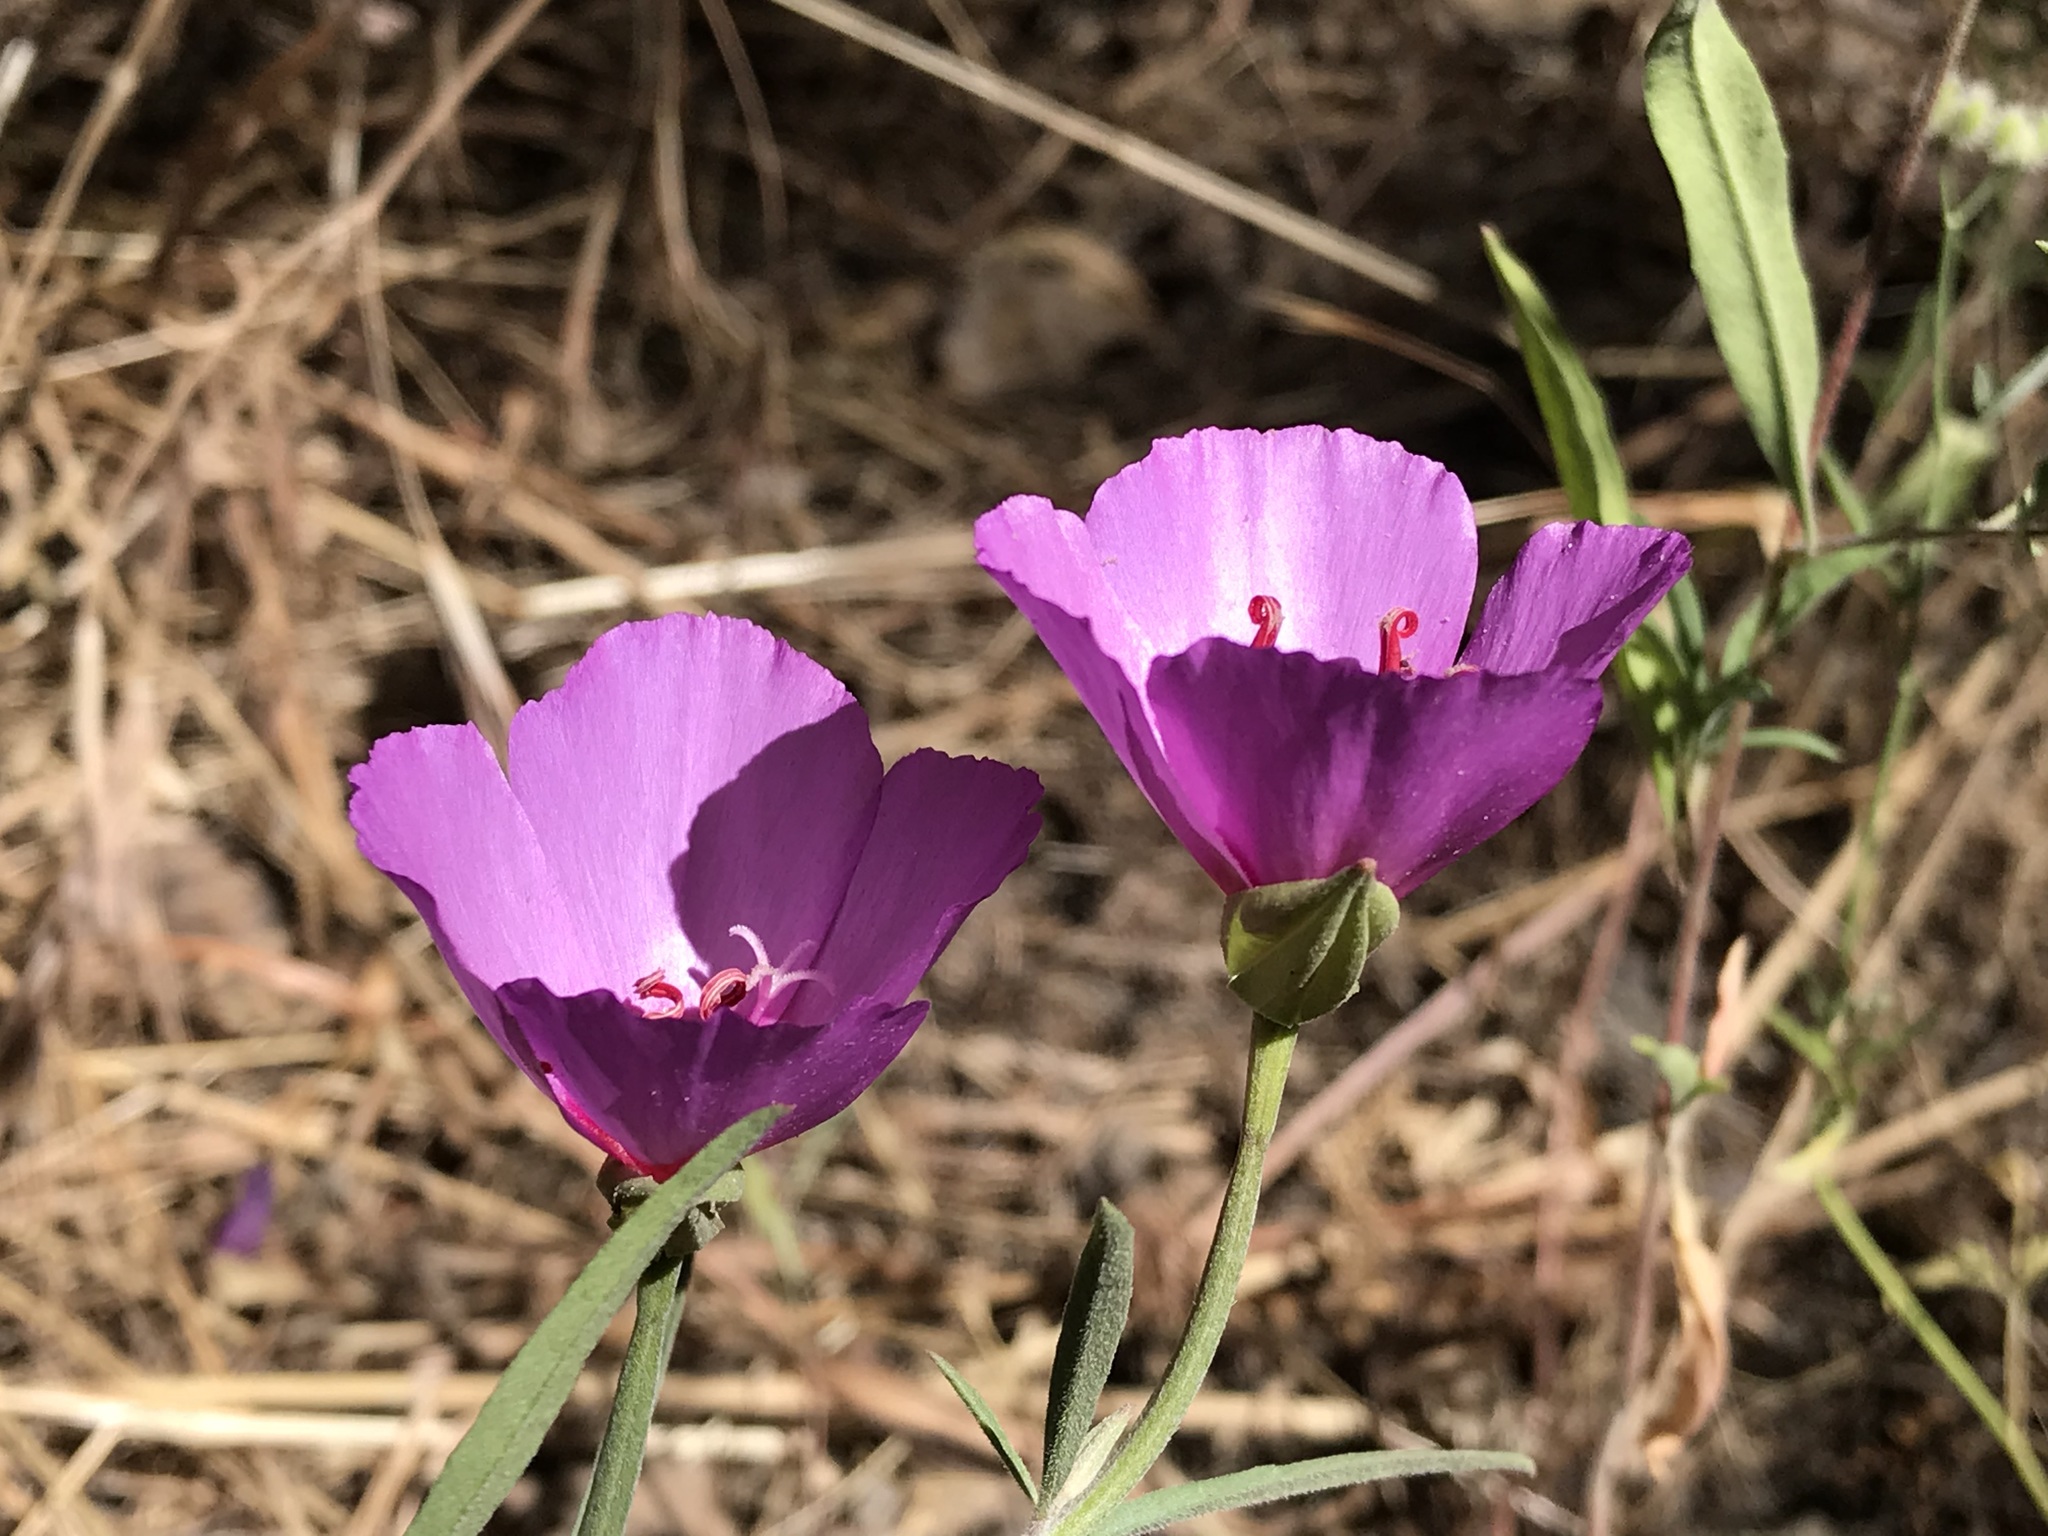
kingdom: Plantae
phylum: Tracheophyta
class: Magnoliopsida
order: Myrtales
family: Onagraceae
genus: Clarkia
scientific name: Clarkia rubicunda
